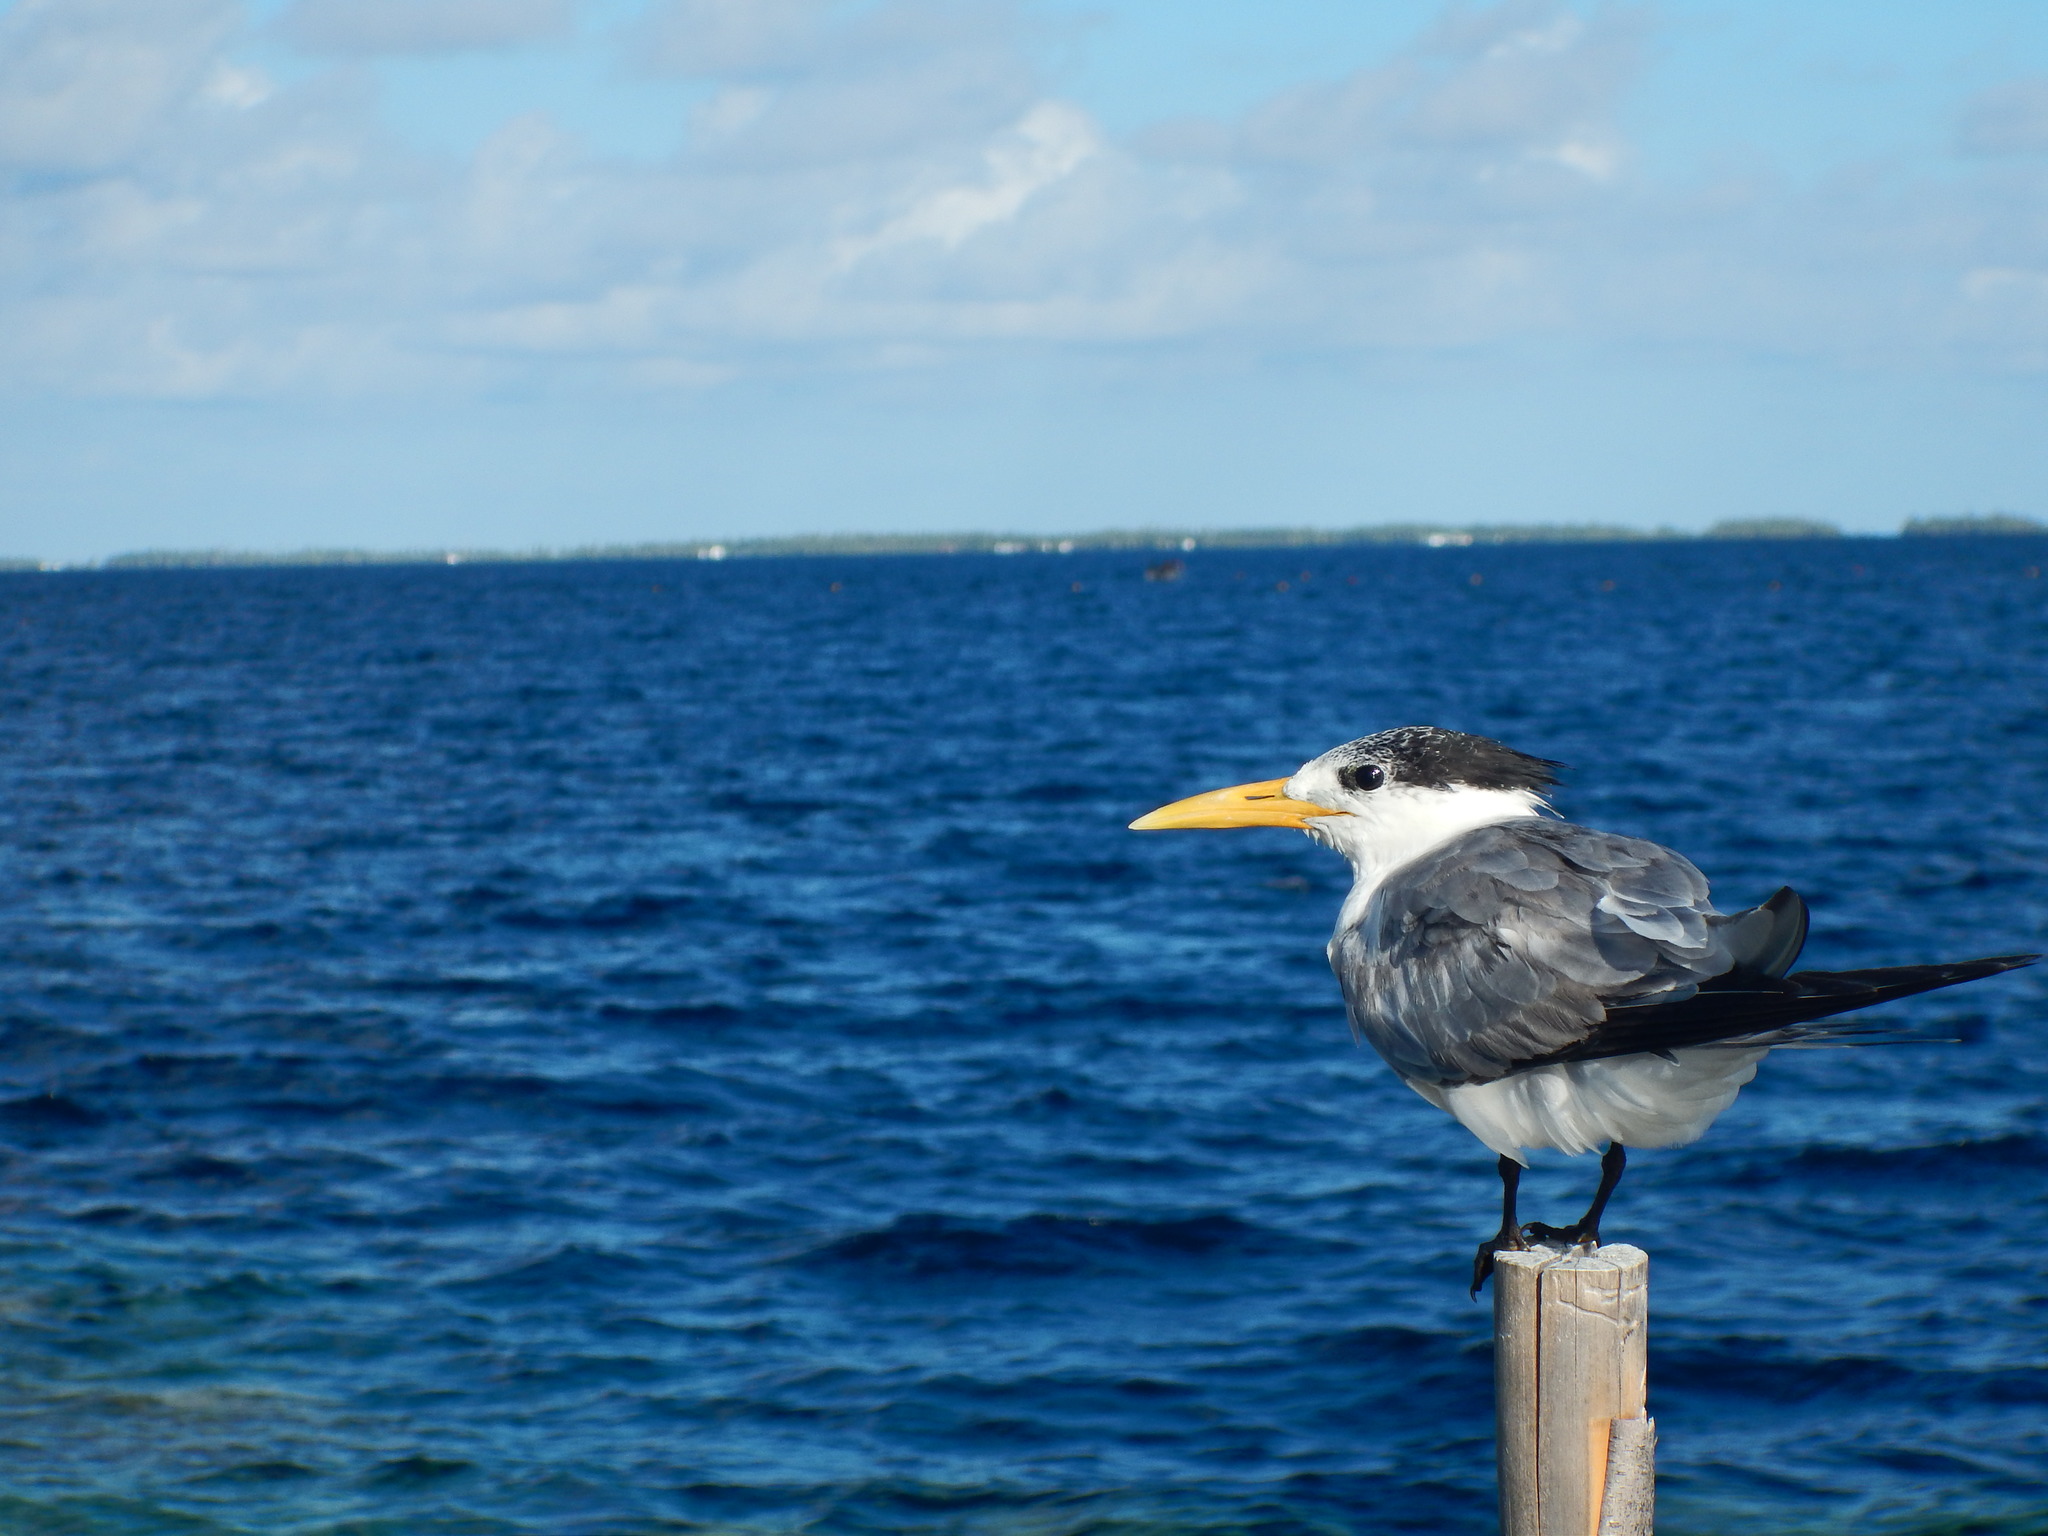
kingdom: Animalia
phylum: Chordata
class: Aves
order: Charadriiformes
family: Laridae
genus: Thalasseus
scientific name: Thalasseus bergii
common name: Greater crested tern
